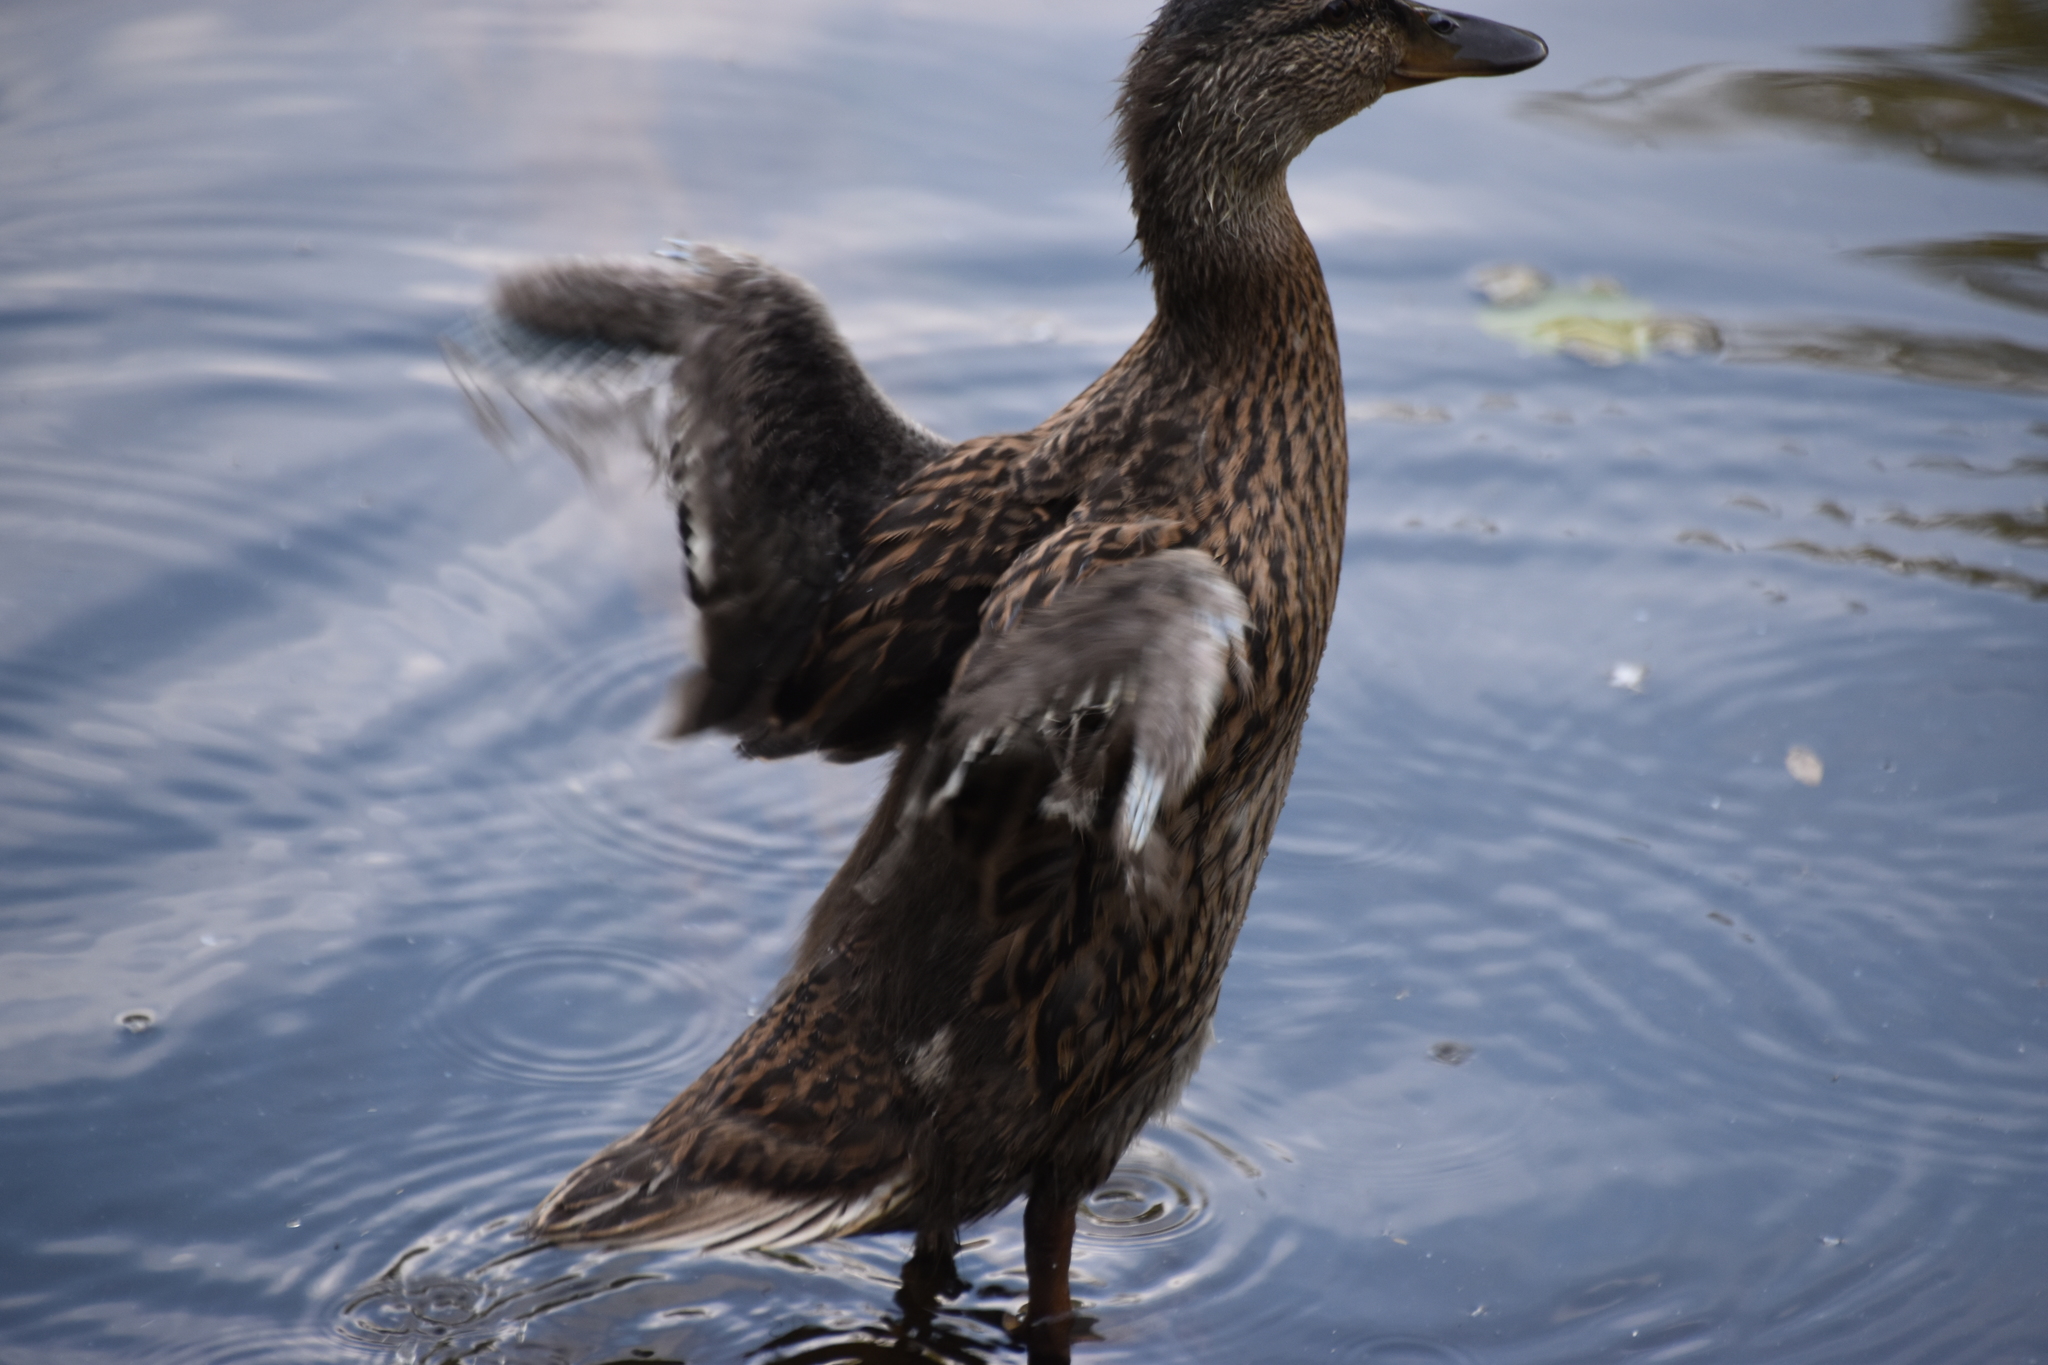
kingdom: Animalia
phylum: Chordata
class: Aves
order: Anseriformes
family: Anatidae
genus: Anas
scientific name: Anas platyrhynchos
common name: Mallard
